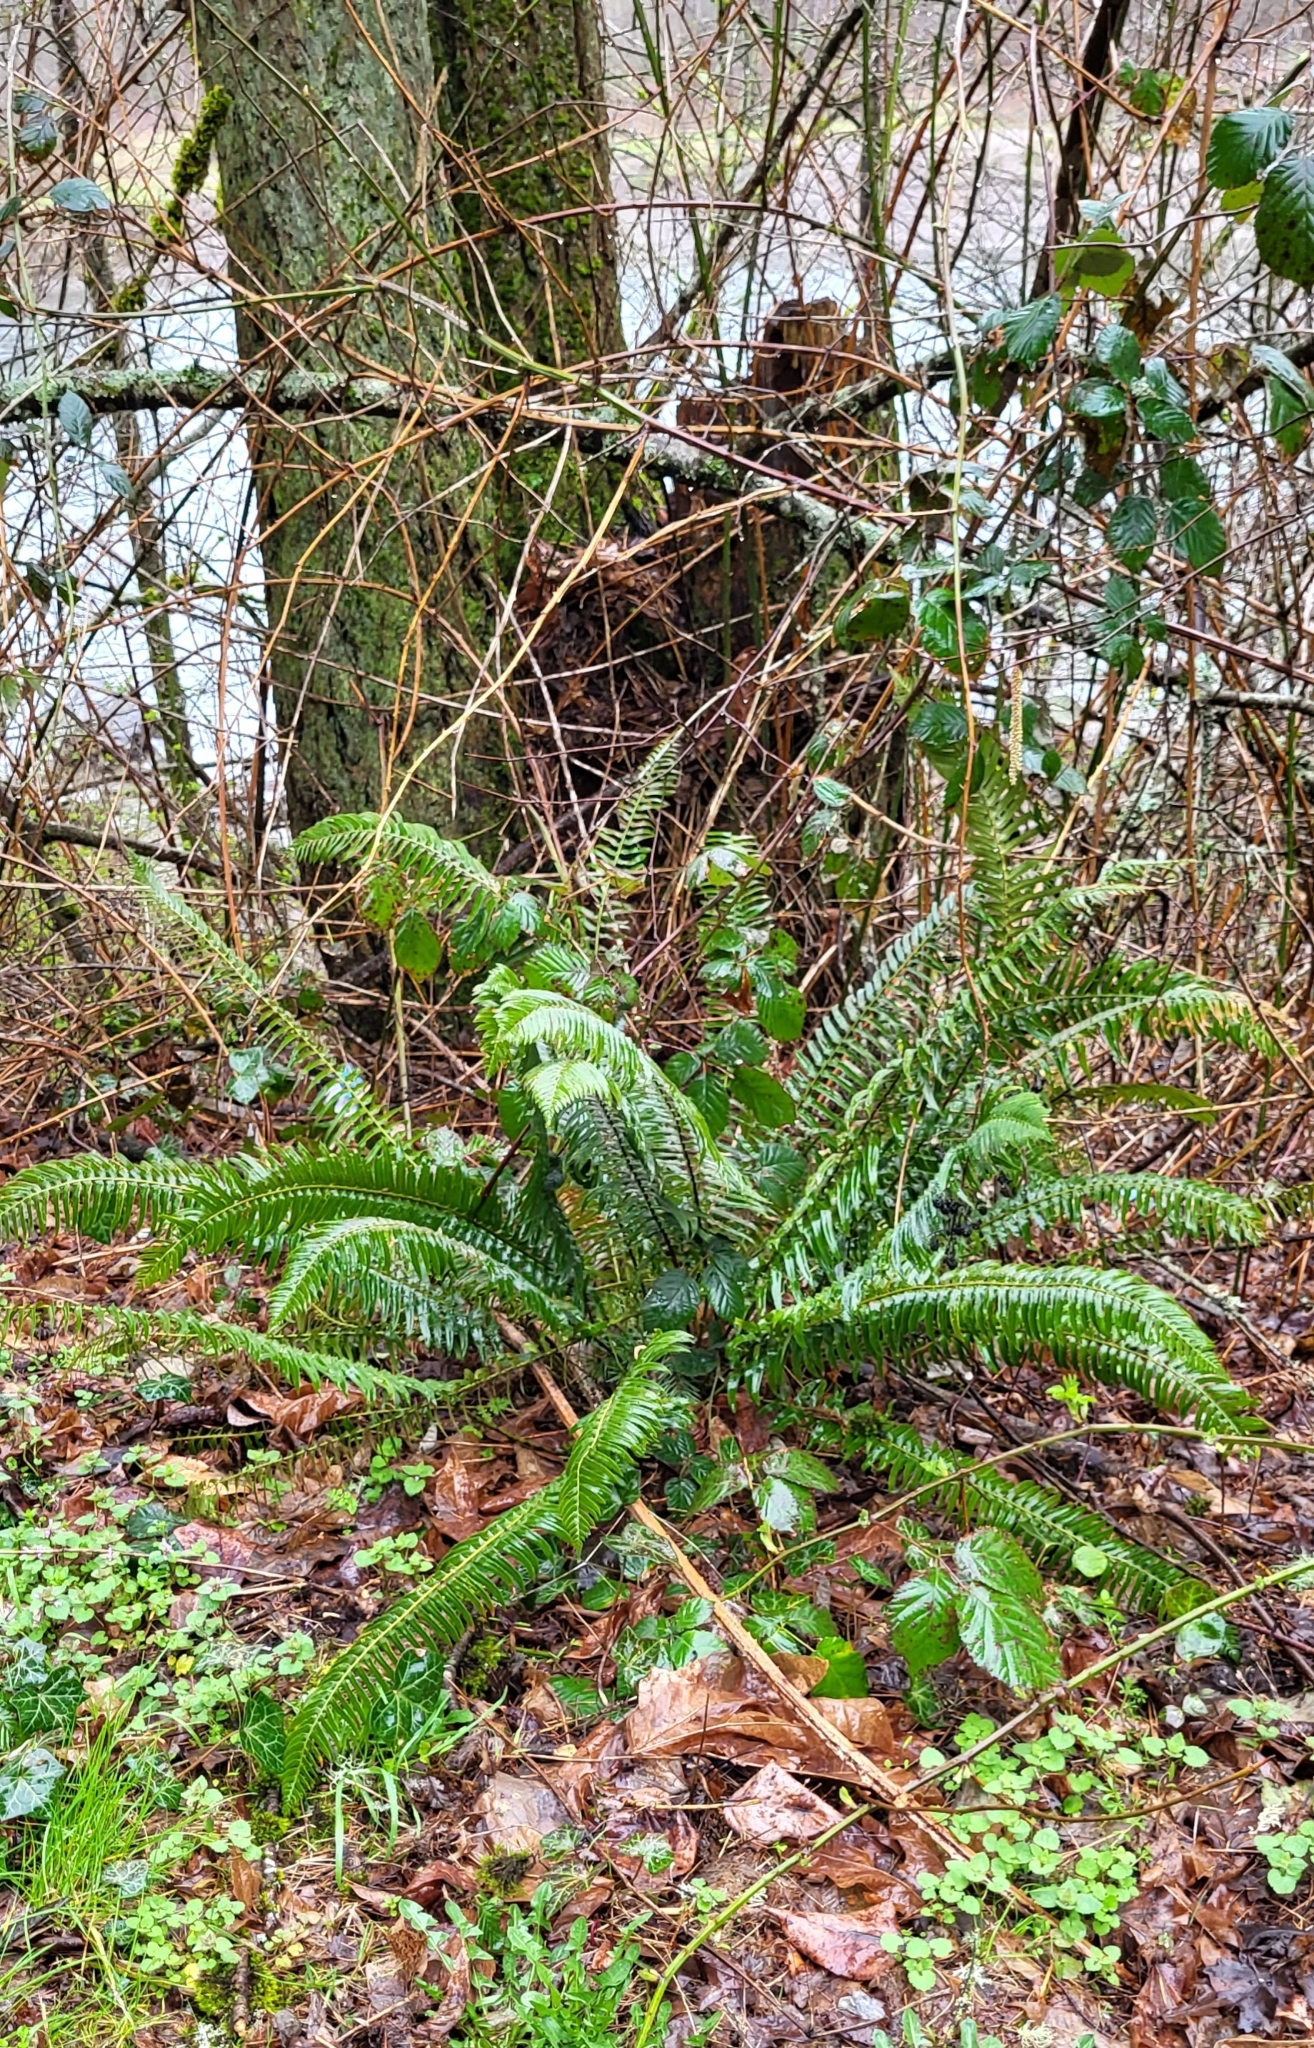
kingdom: Plantae
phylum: Tracheophyta
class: Polypodiopsida
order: Polypodiales
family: Dryopteridaceae
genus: Polystichum
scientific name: Polystichum munitum
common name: Western sword-fern
